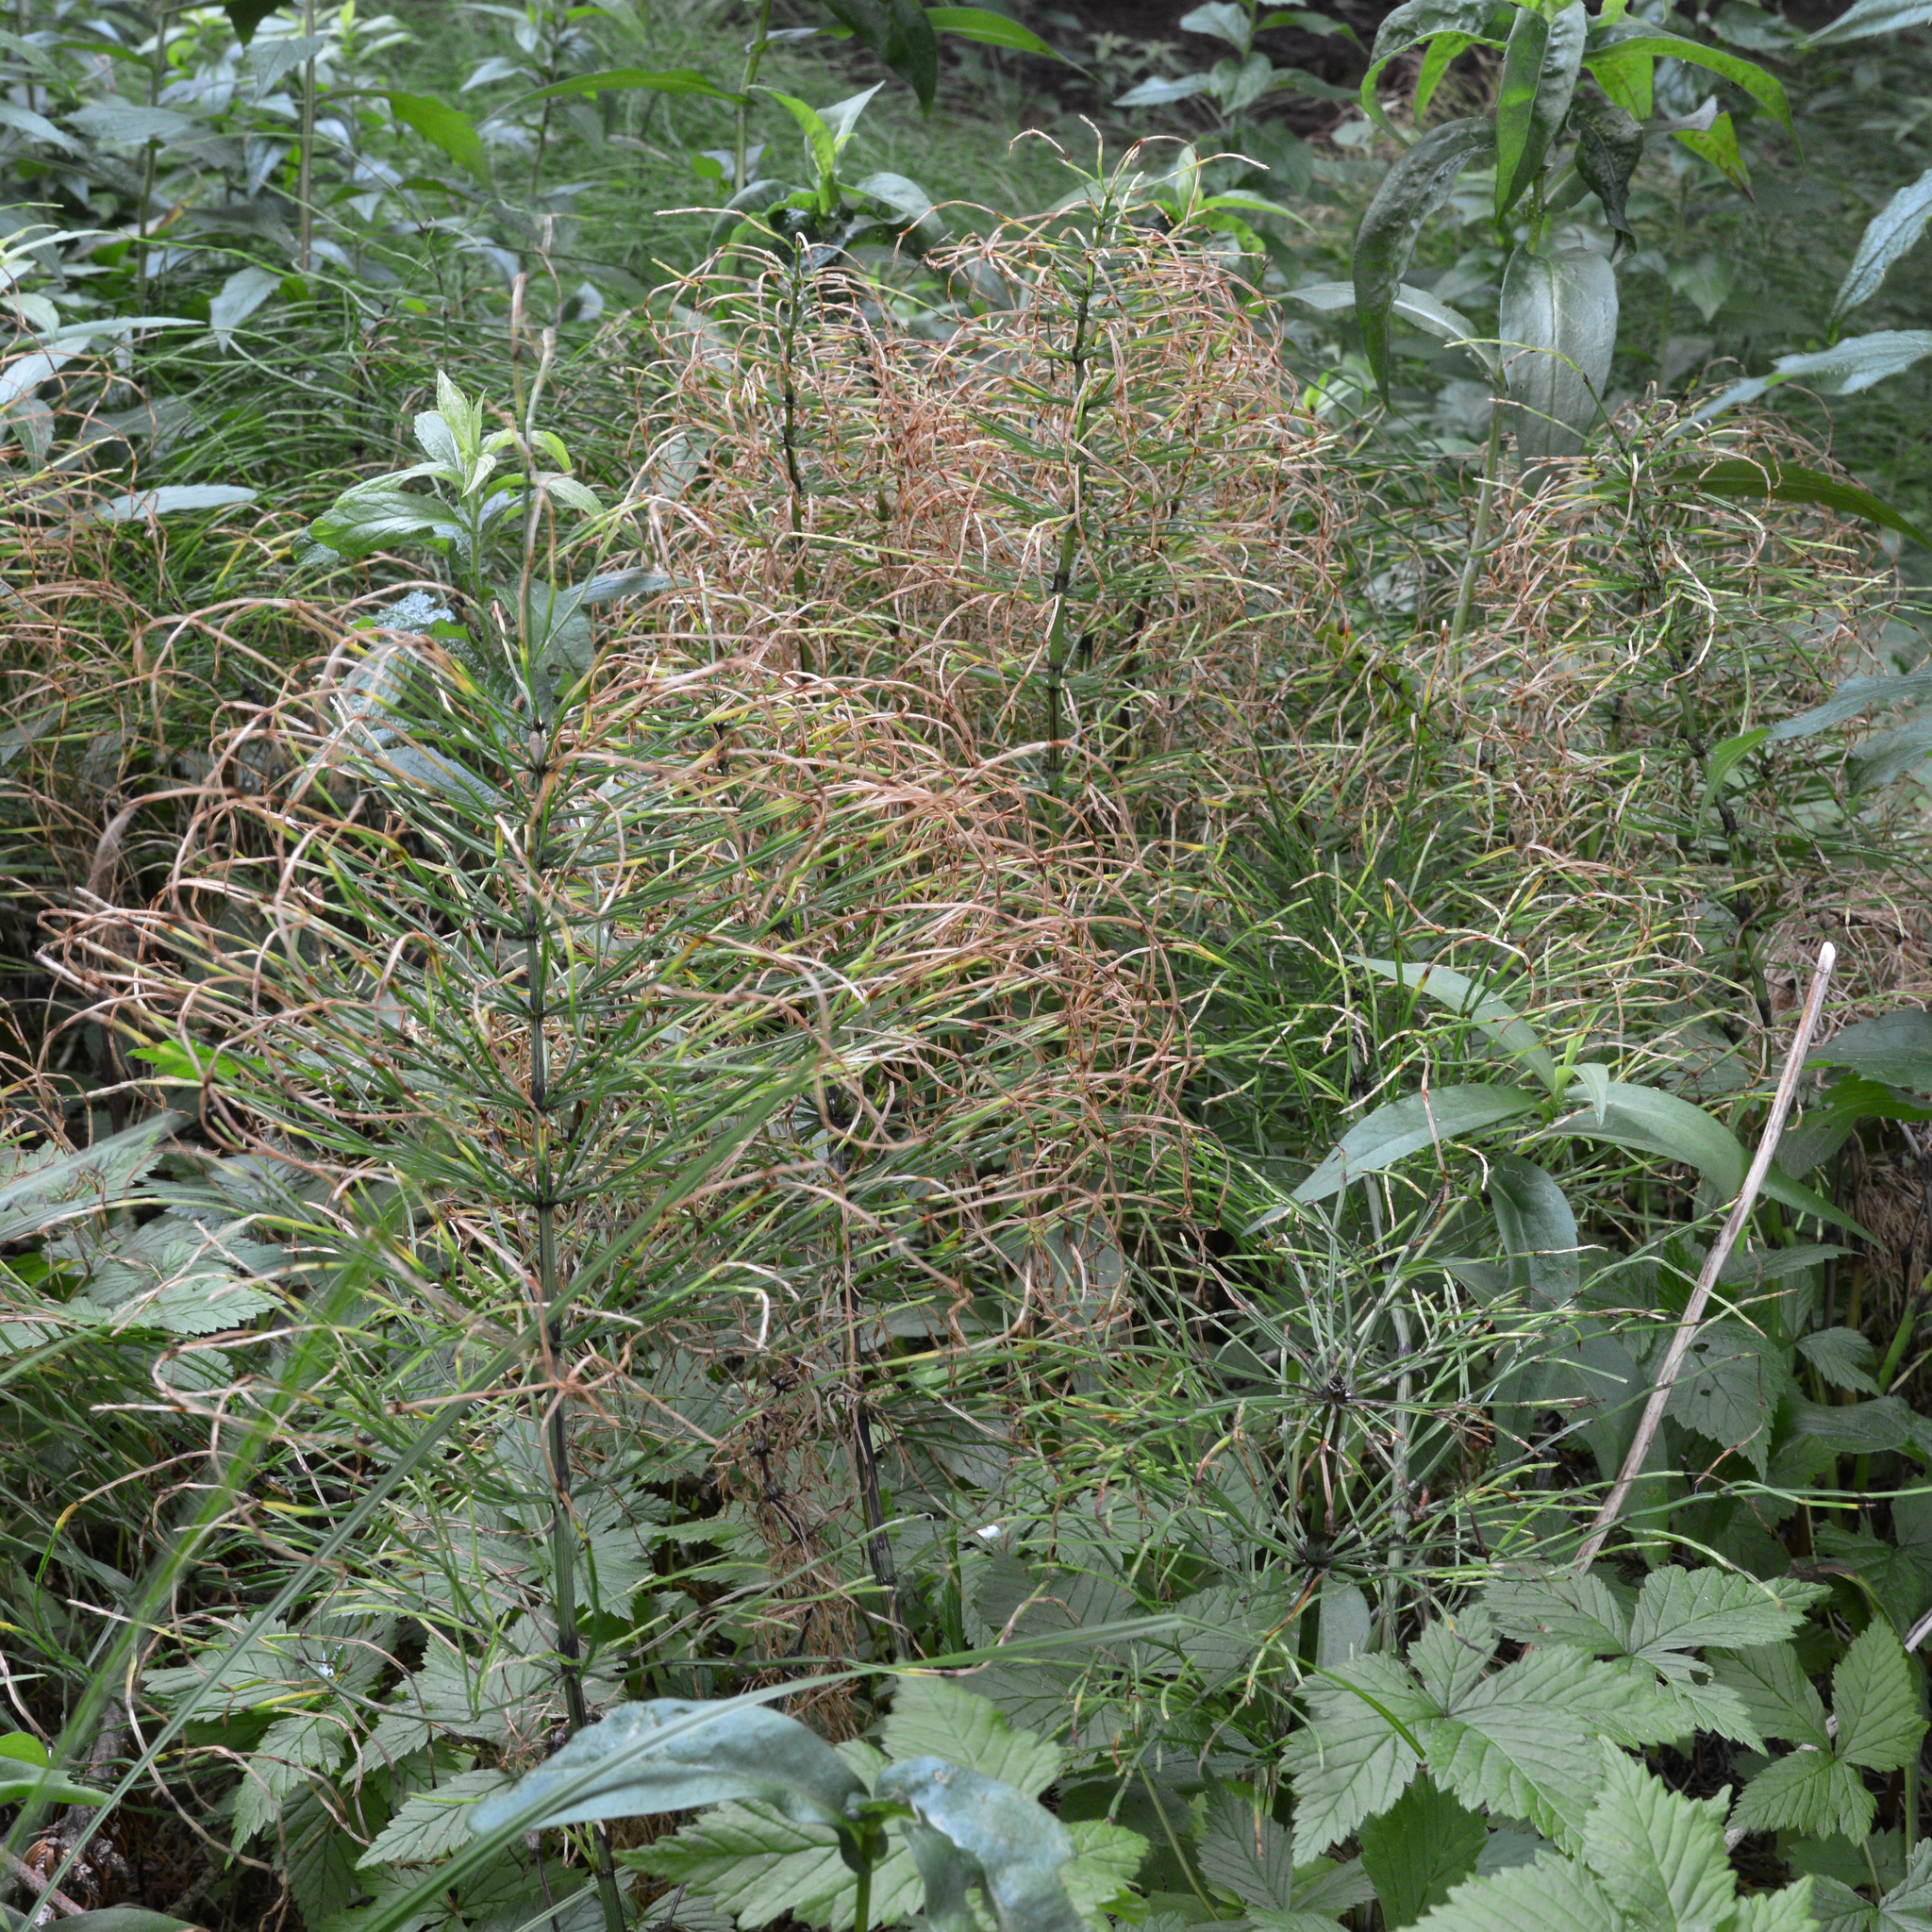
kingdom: Plantae
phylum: Tracheophyta
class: Polypodiopsida
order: Equisetales
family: Equisetaceae
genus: Equisetum
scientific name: Equisetum arvense
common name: Field horsetail
